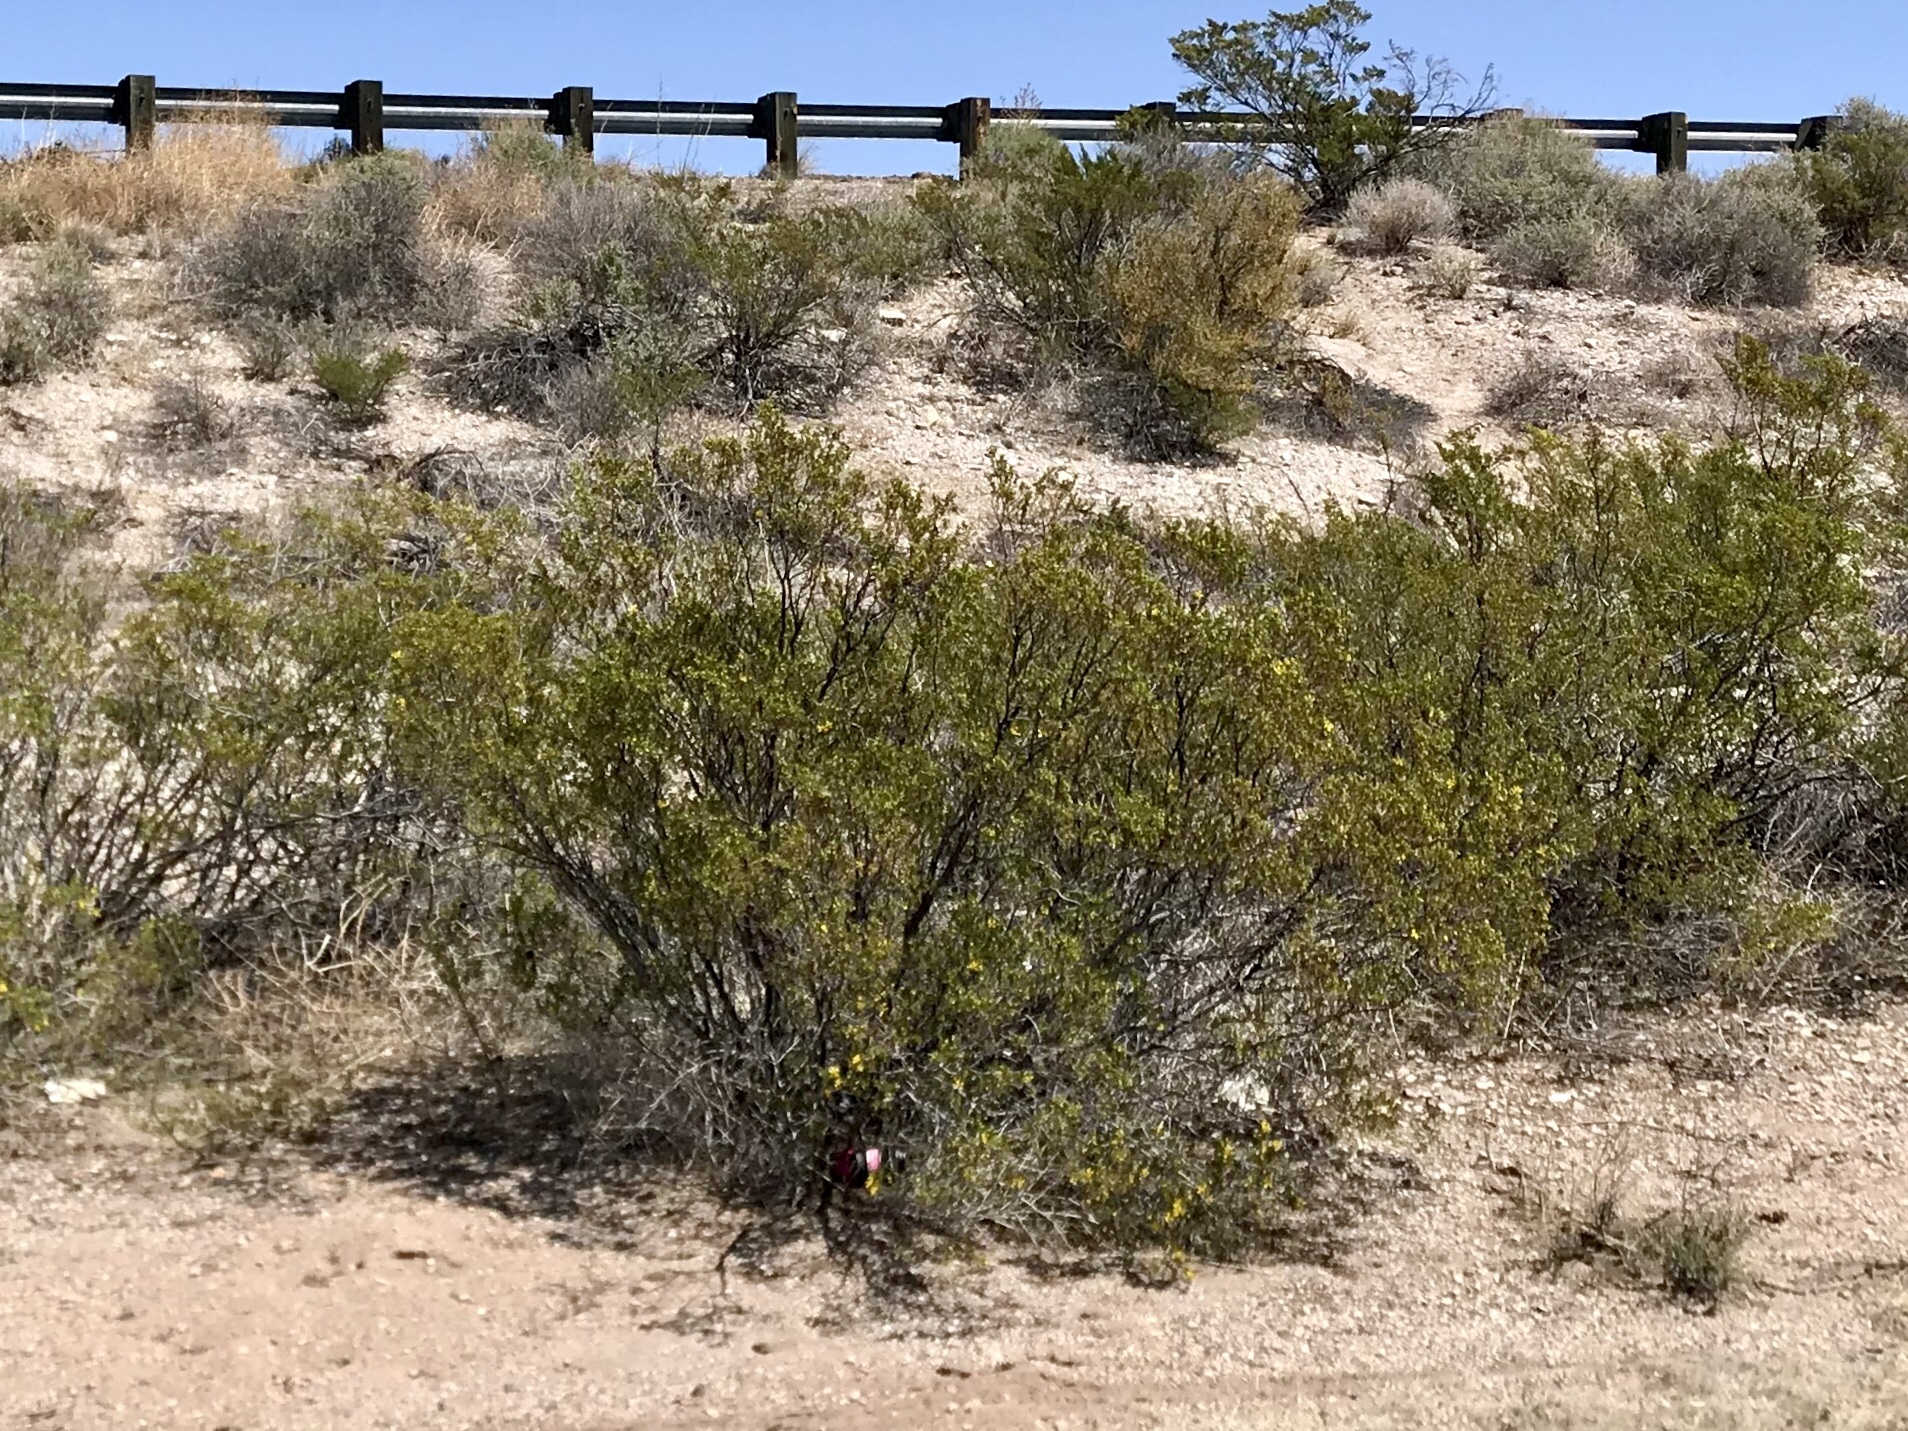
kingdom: Plantae
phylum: Tracheophyta
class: Magnoliopsida
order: Zygophyllales
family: Zygophyllaceae
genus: Larrea
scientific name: Larrea tridentata
